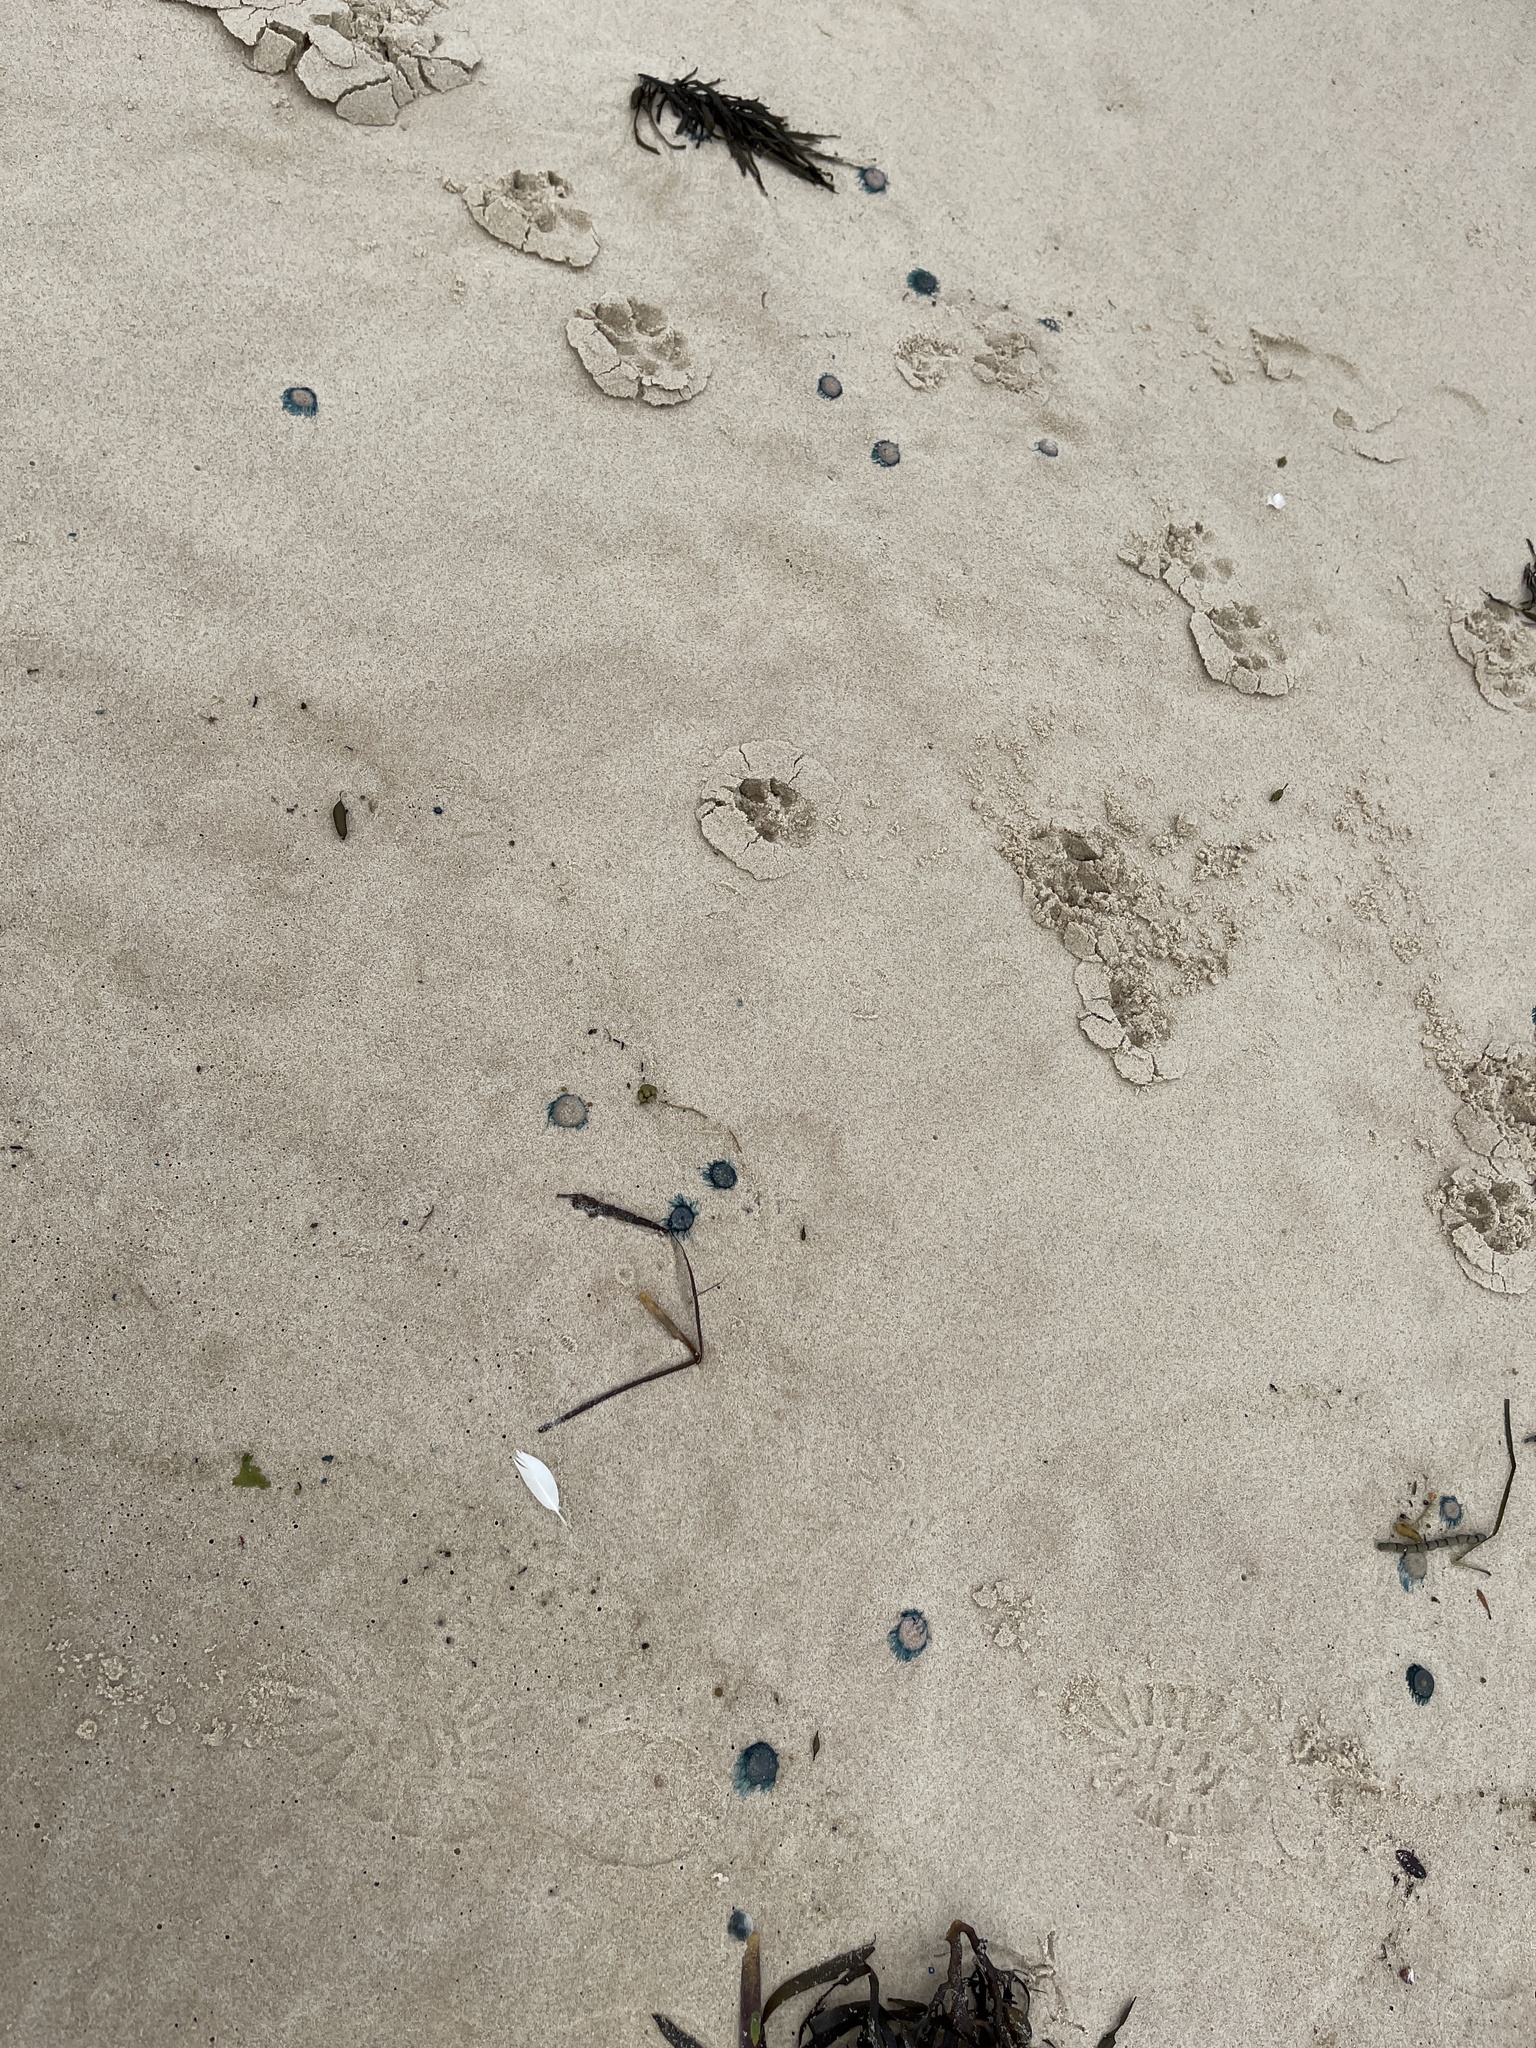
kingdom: Animalia
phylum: Cnidaria
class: Hydrozoa
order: Anthoathecata
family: Porpitidae
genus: Porpita
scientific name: Porpita porpita
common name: Blue button
